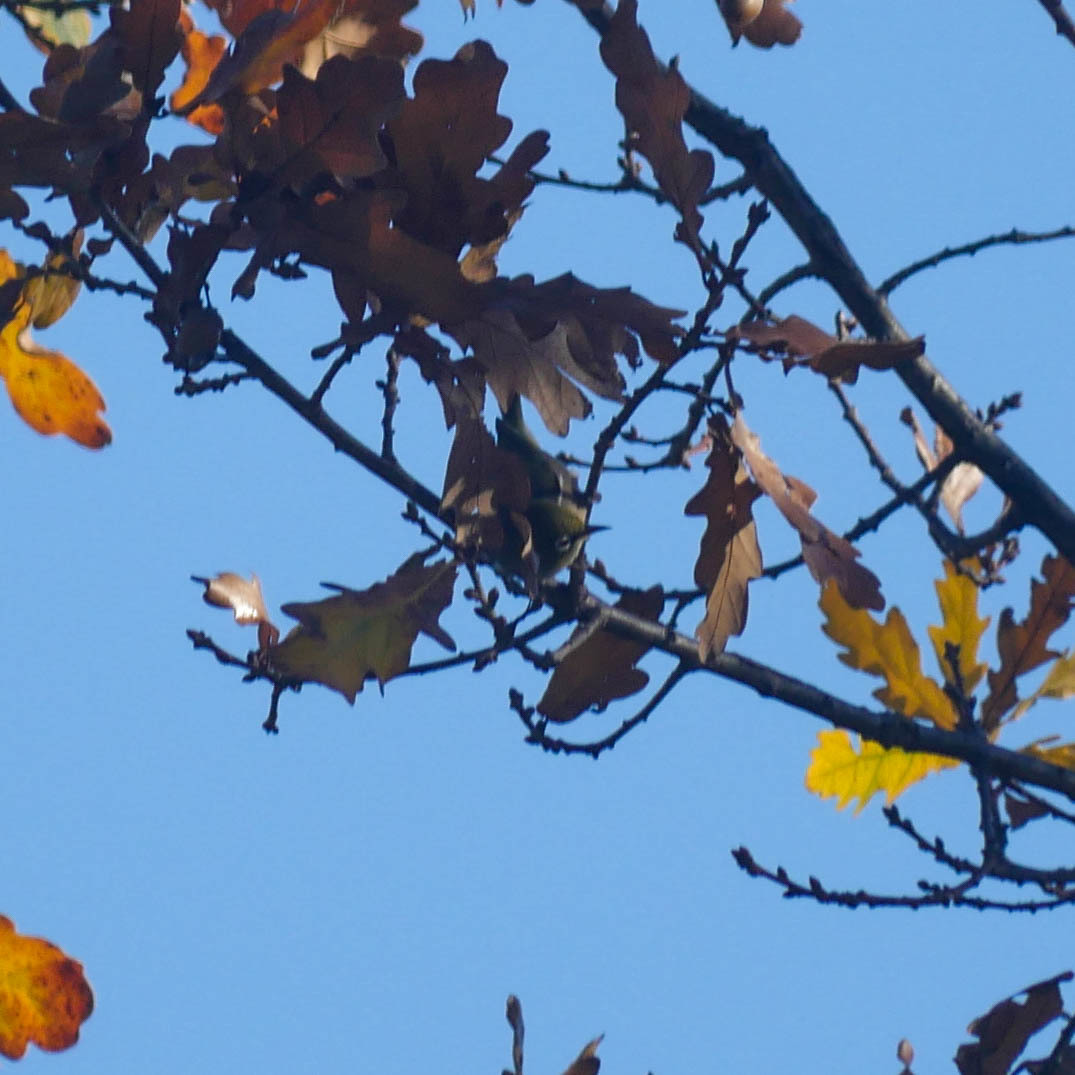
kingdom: Animalia
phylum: Chordata
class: Aves
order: Passeriformes
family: Zosteropidae
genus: Zosterops
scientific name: Zosterops lateralis
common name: Silvereye
